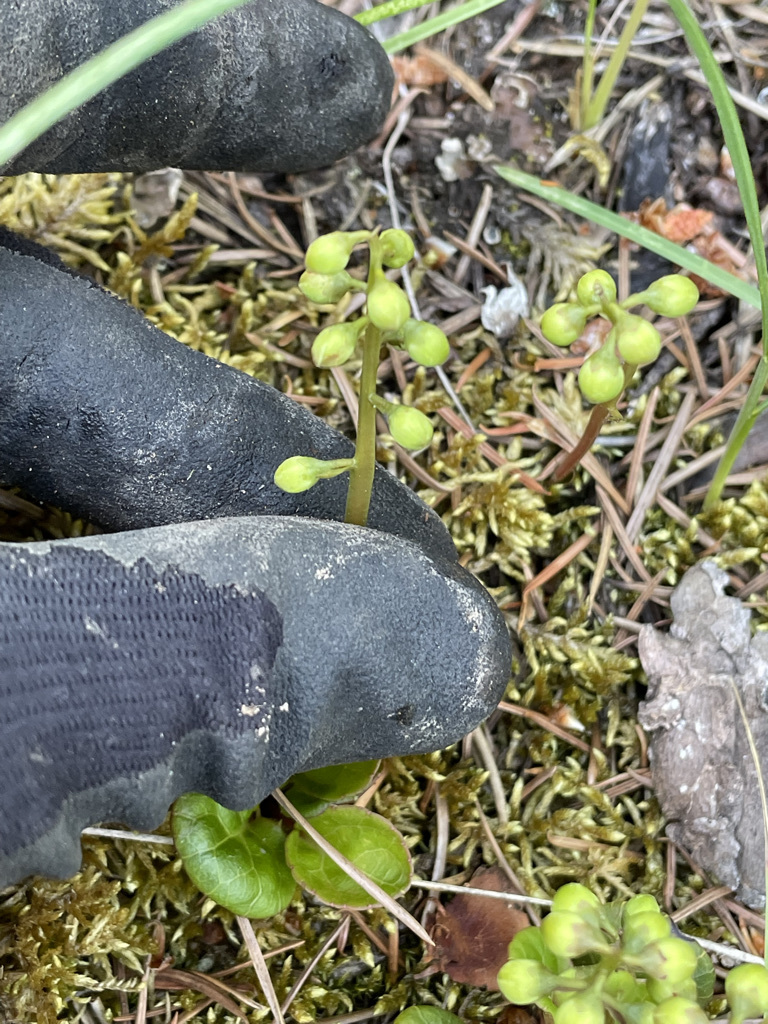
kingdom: Plantae
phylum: Tracheophyta
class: Magnoliopsida
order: Ericales
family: Ericaceae
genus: Pyrola
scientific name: Pyrola chlorantha
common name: Green wintergreen
